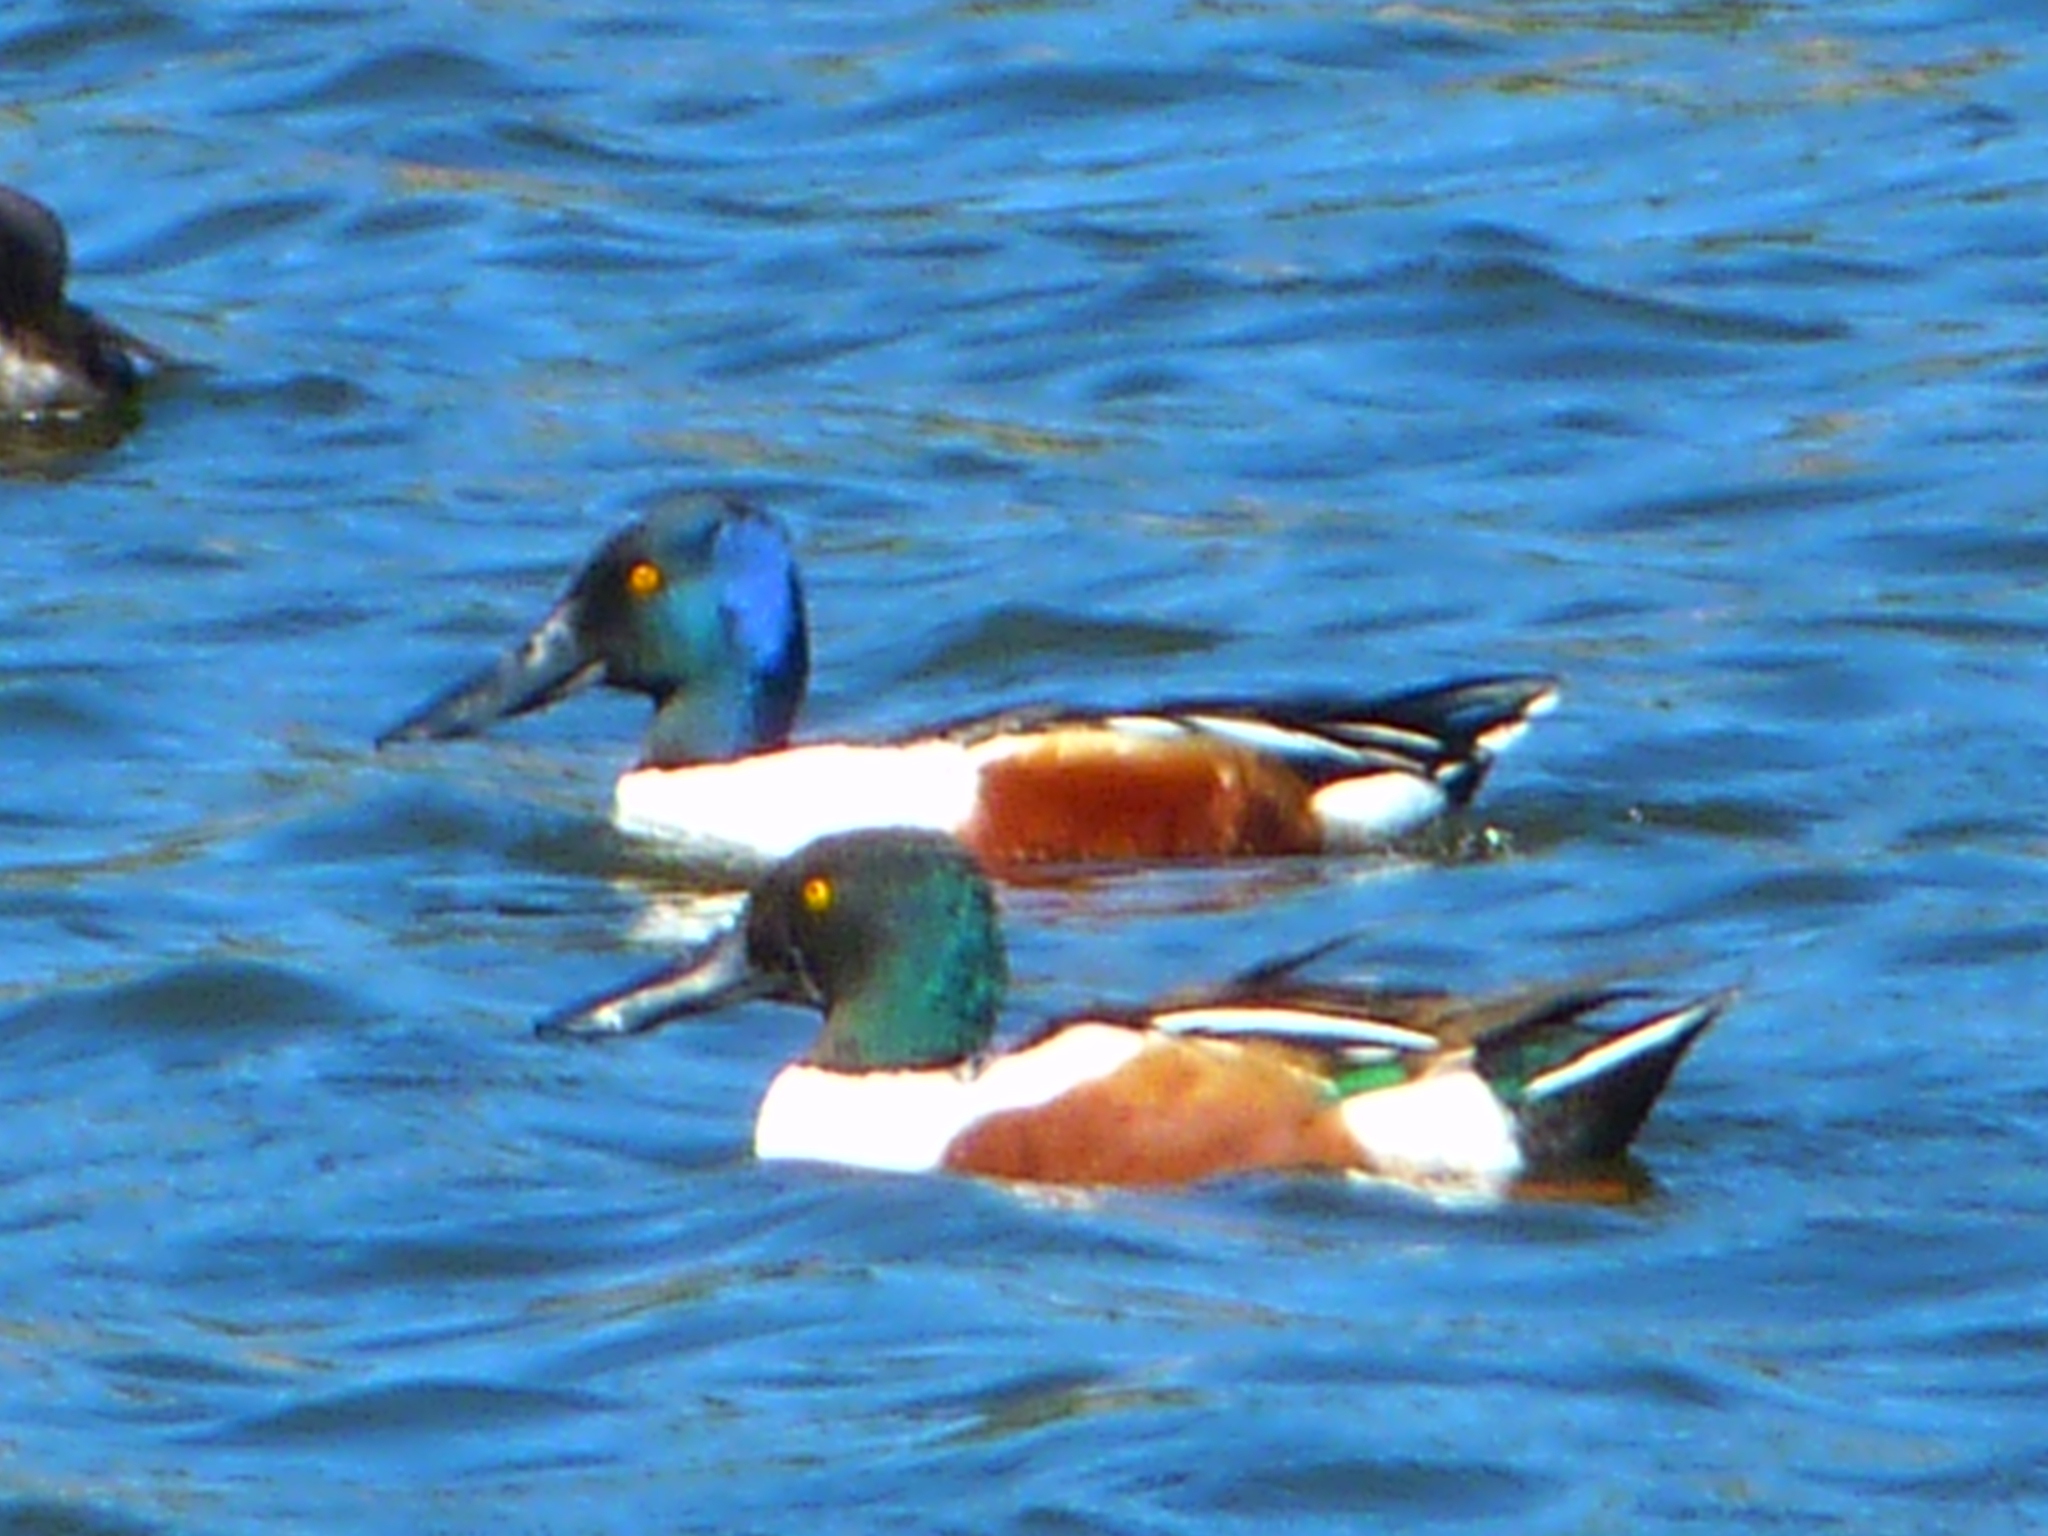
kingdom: Animalia
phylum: Chordata
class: Aves
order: Anseriformes
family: Anatidae
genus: Spatula
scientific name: Spatula clypeata
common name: Northern shoveler
